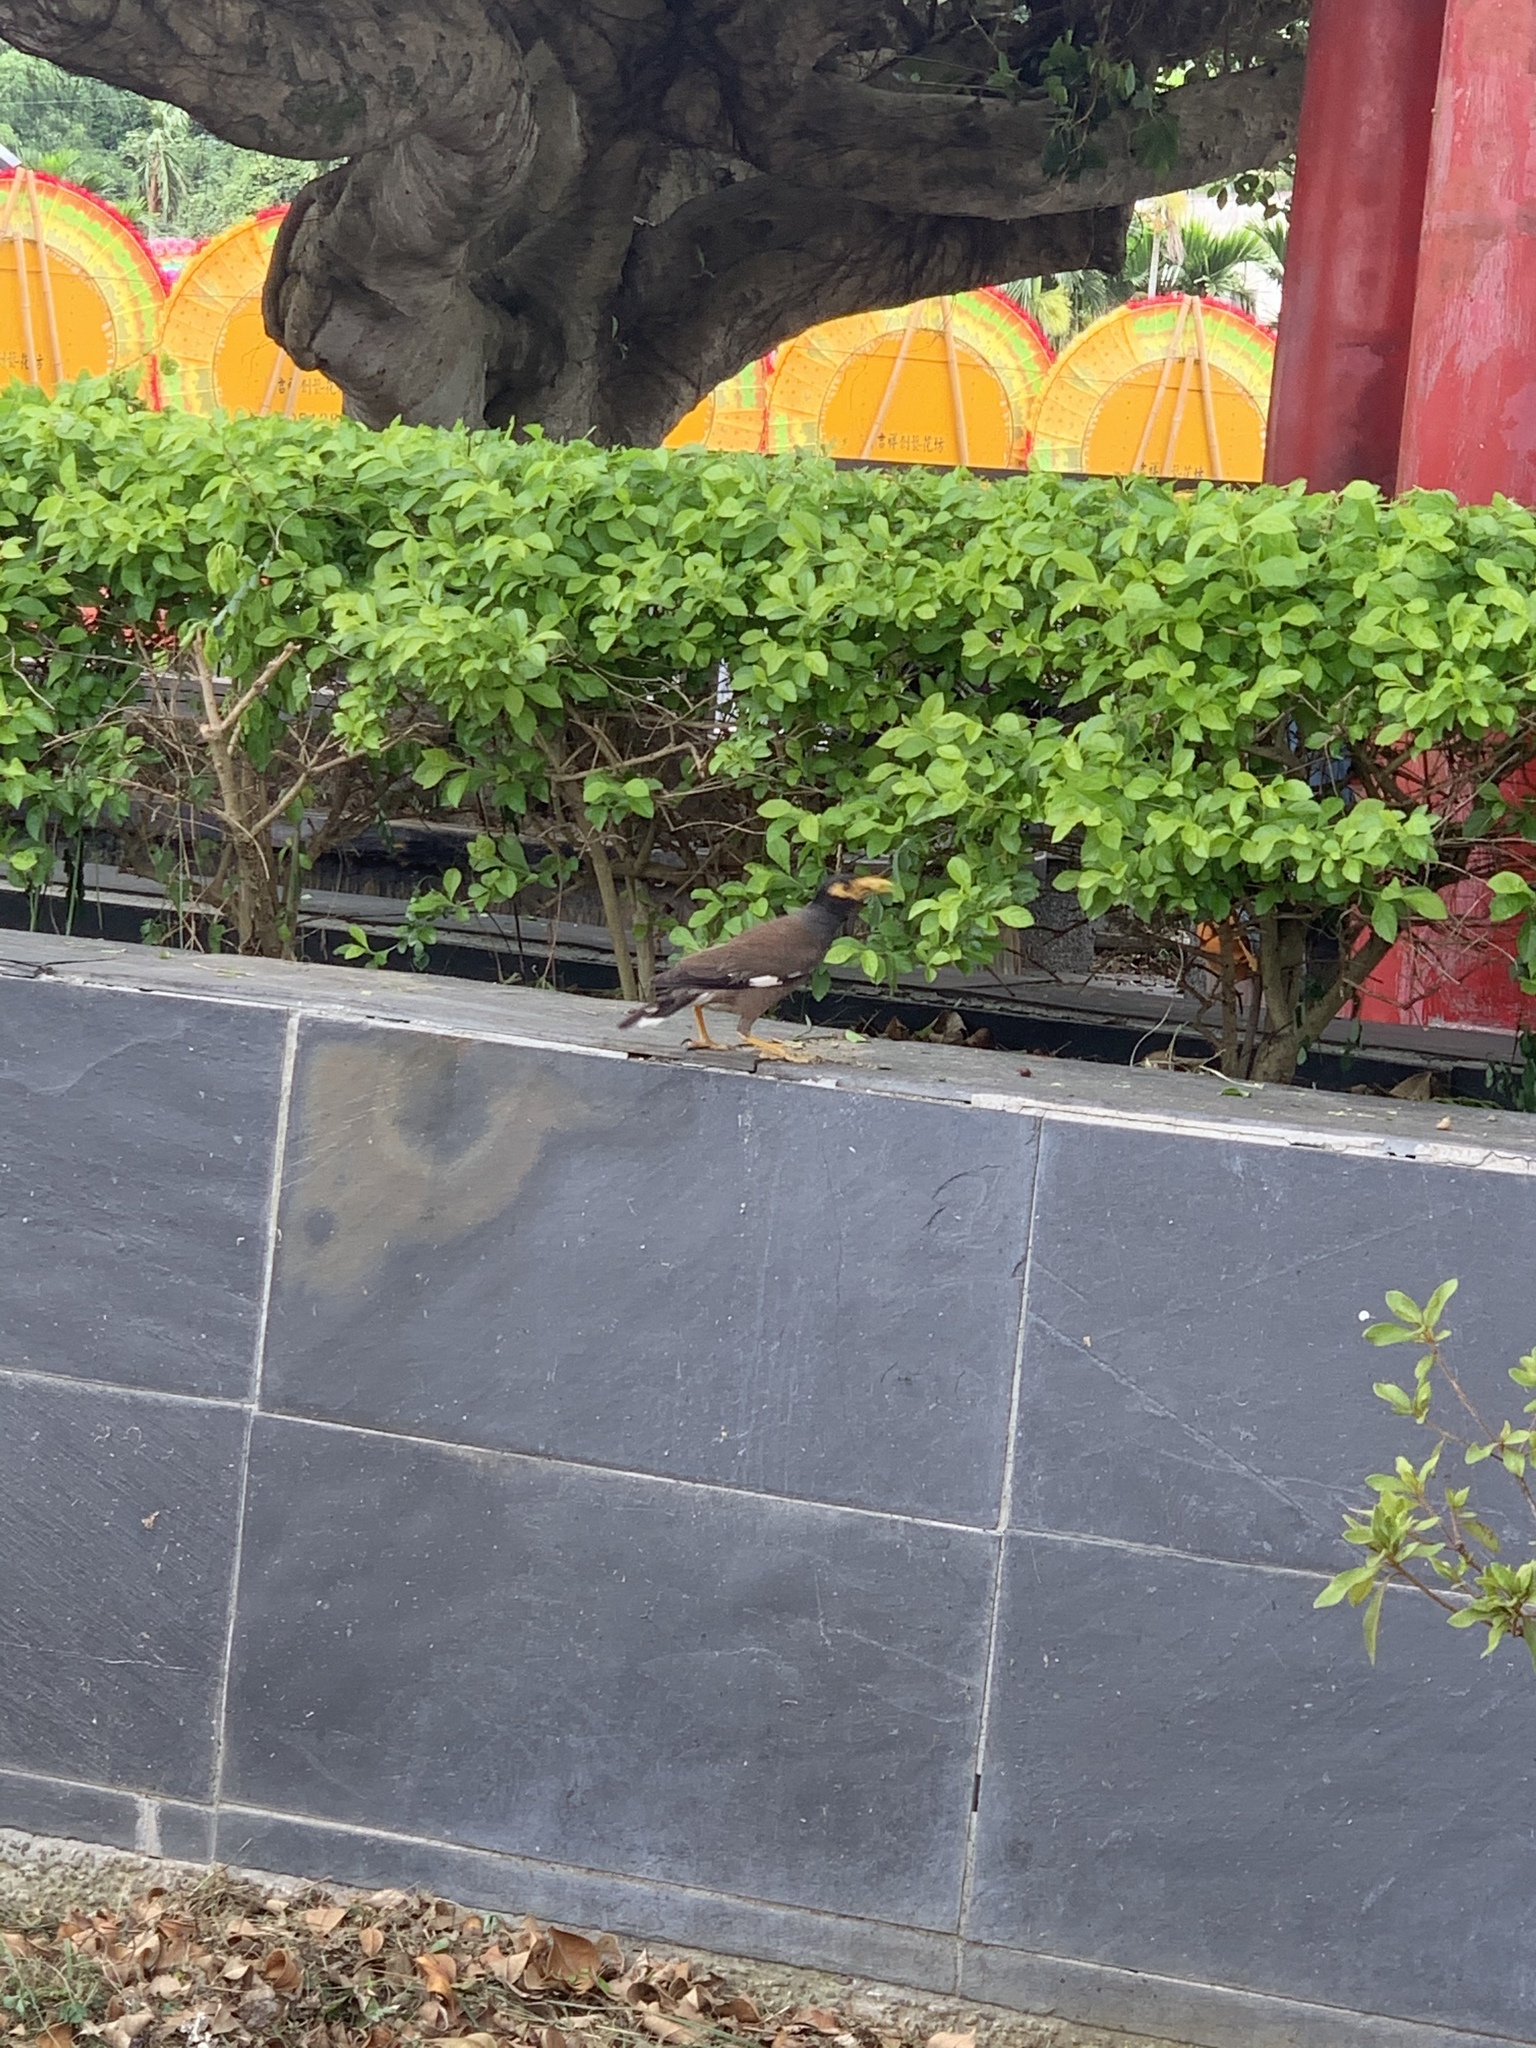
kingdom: Animalia
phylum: Chordata
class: Aves
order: Passeriformes
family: Sturnidae
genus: Acridotheres
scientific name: Acridotheres tristis
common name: Common myna
